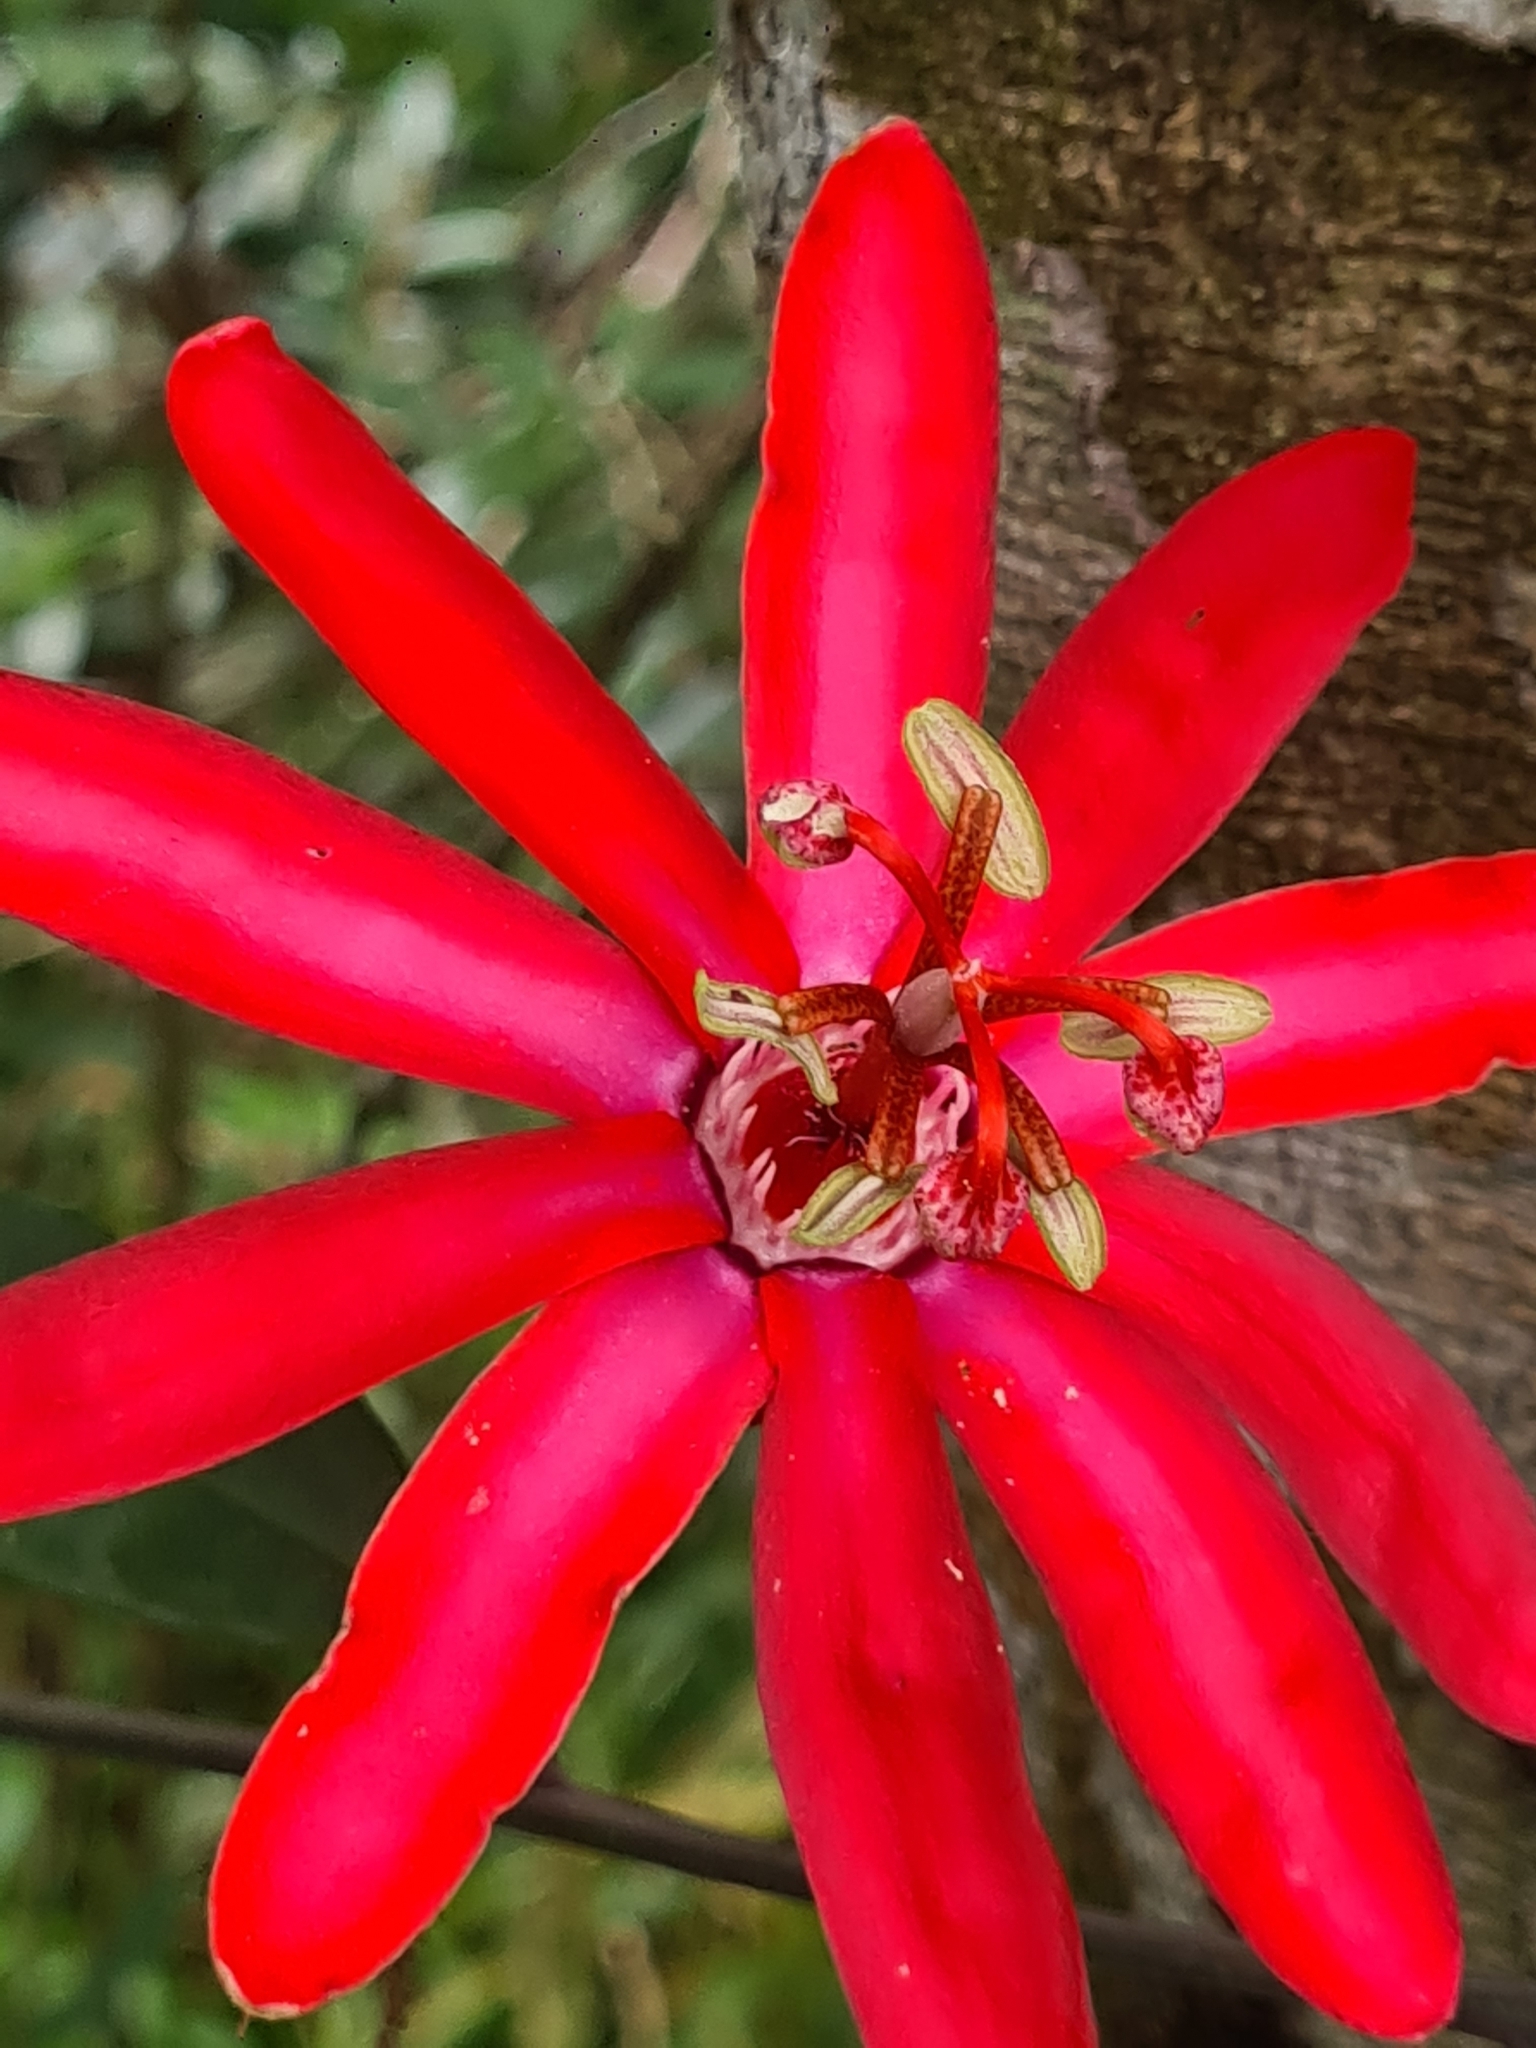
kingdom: Plantae
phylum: Tracheophyta
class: Magnoliopsida
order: Malpighiales
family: Passifloraceae
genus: Passiflora
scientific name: Passiflora glandulosa
